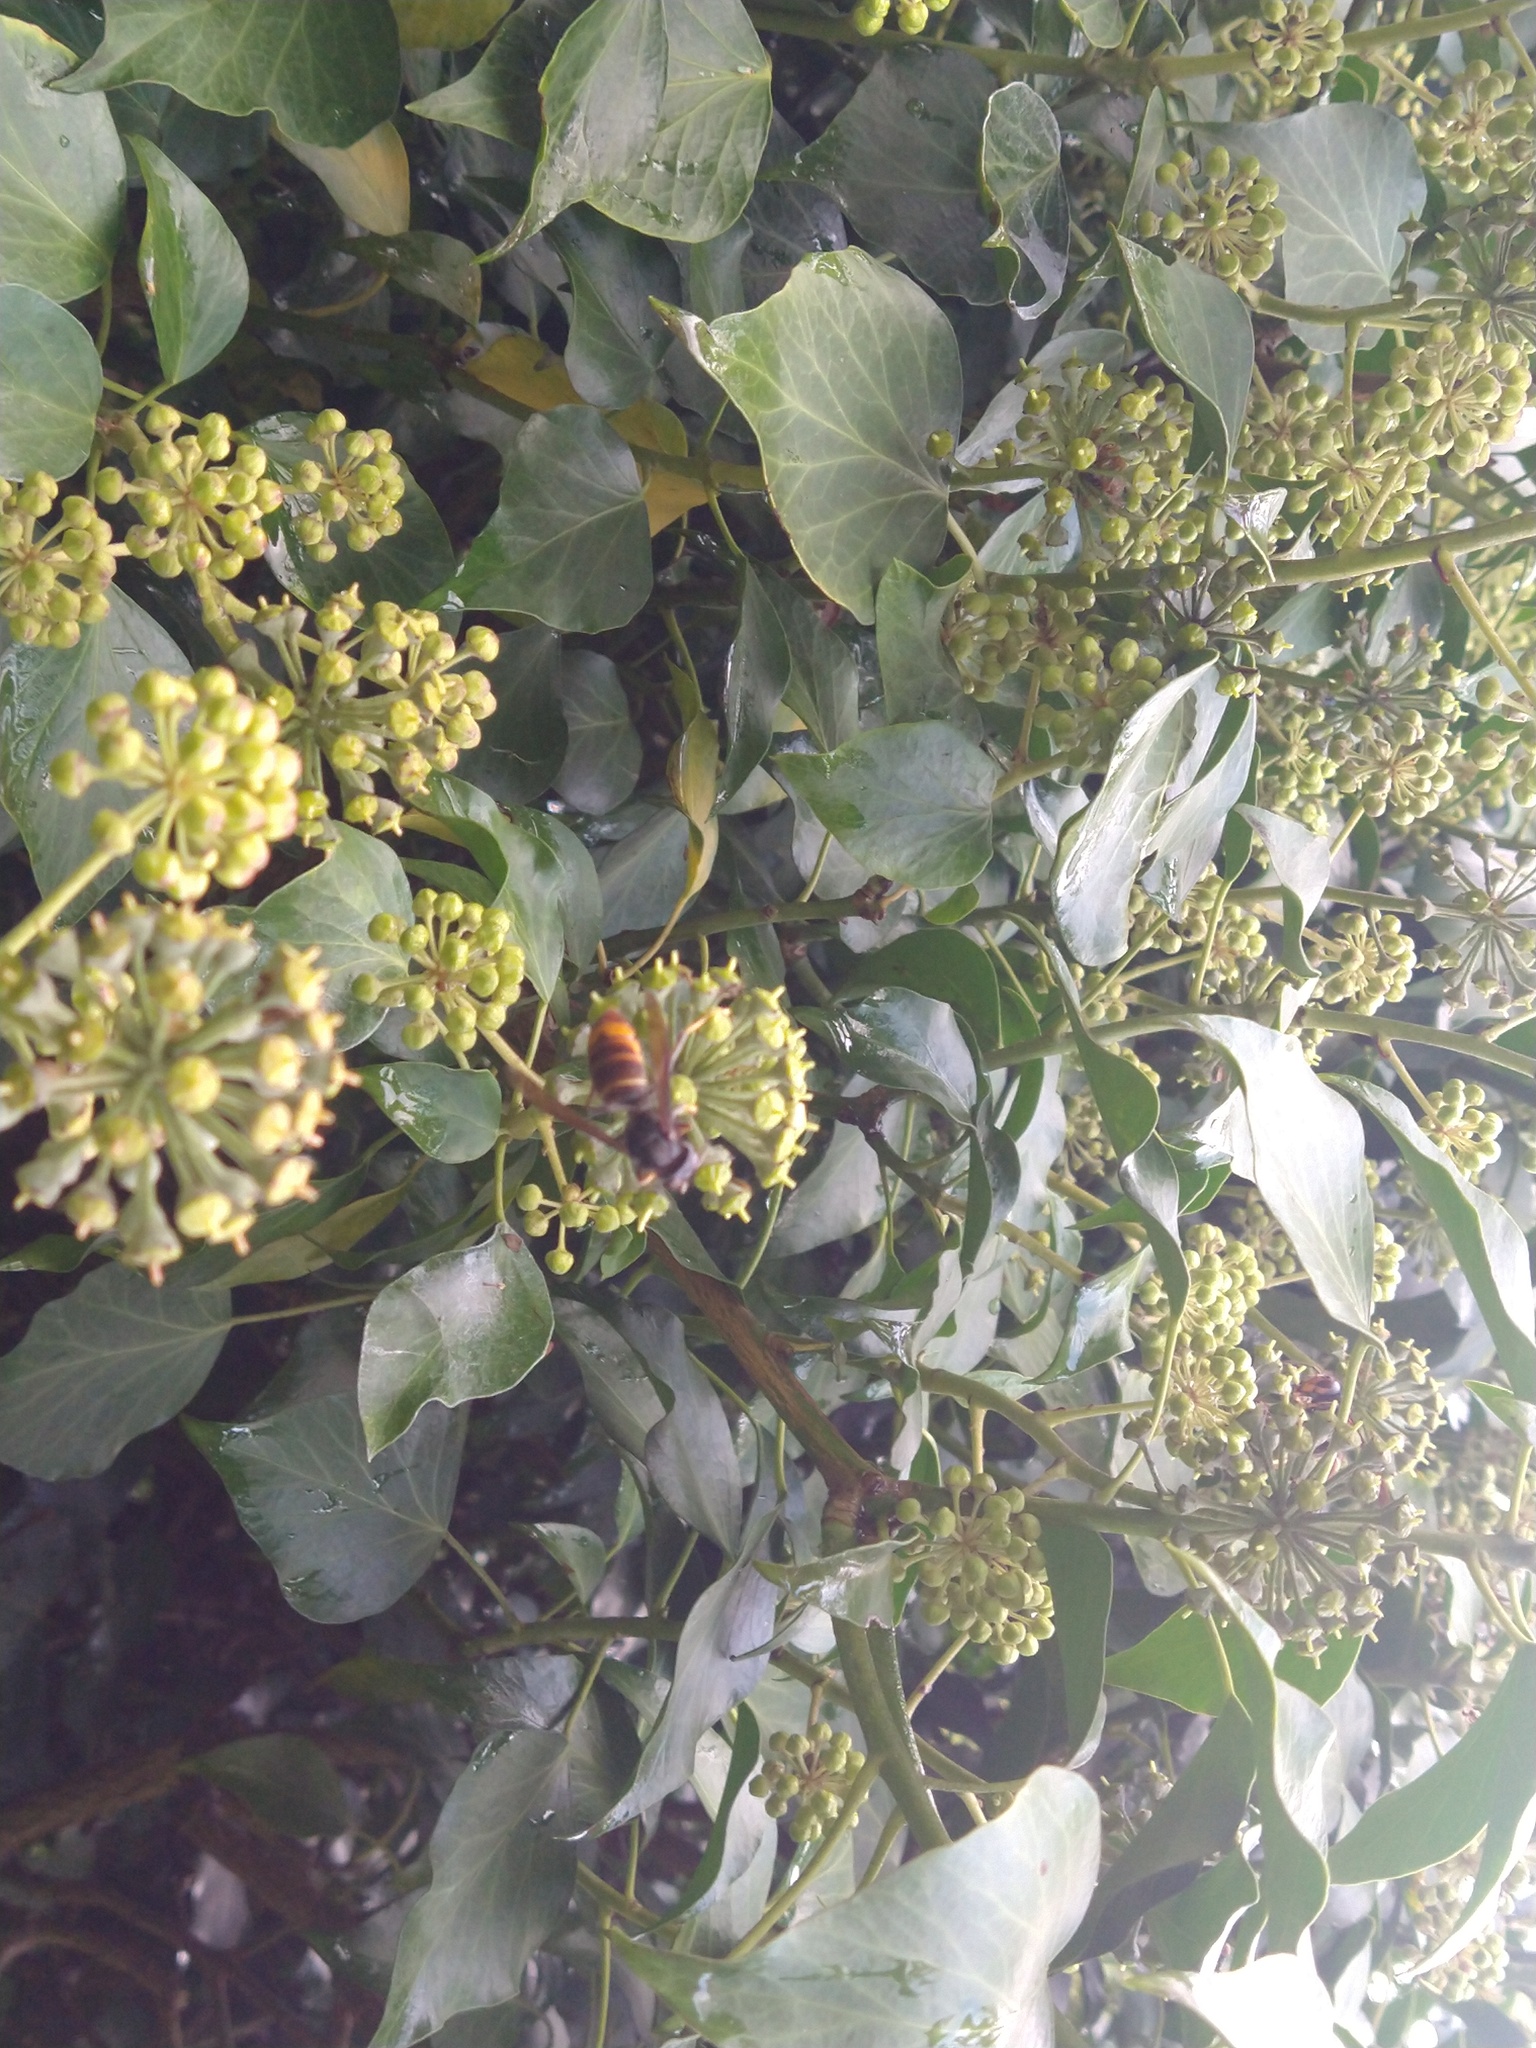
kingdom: Animalia
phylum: Arthropoda
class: Insecta
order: Hymenoptera
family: Vespidae
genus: Vespa
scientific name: Vespa velutina
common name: Asian hornet
